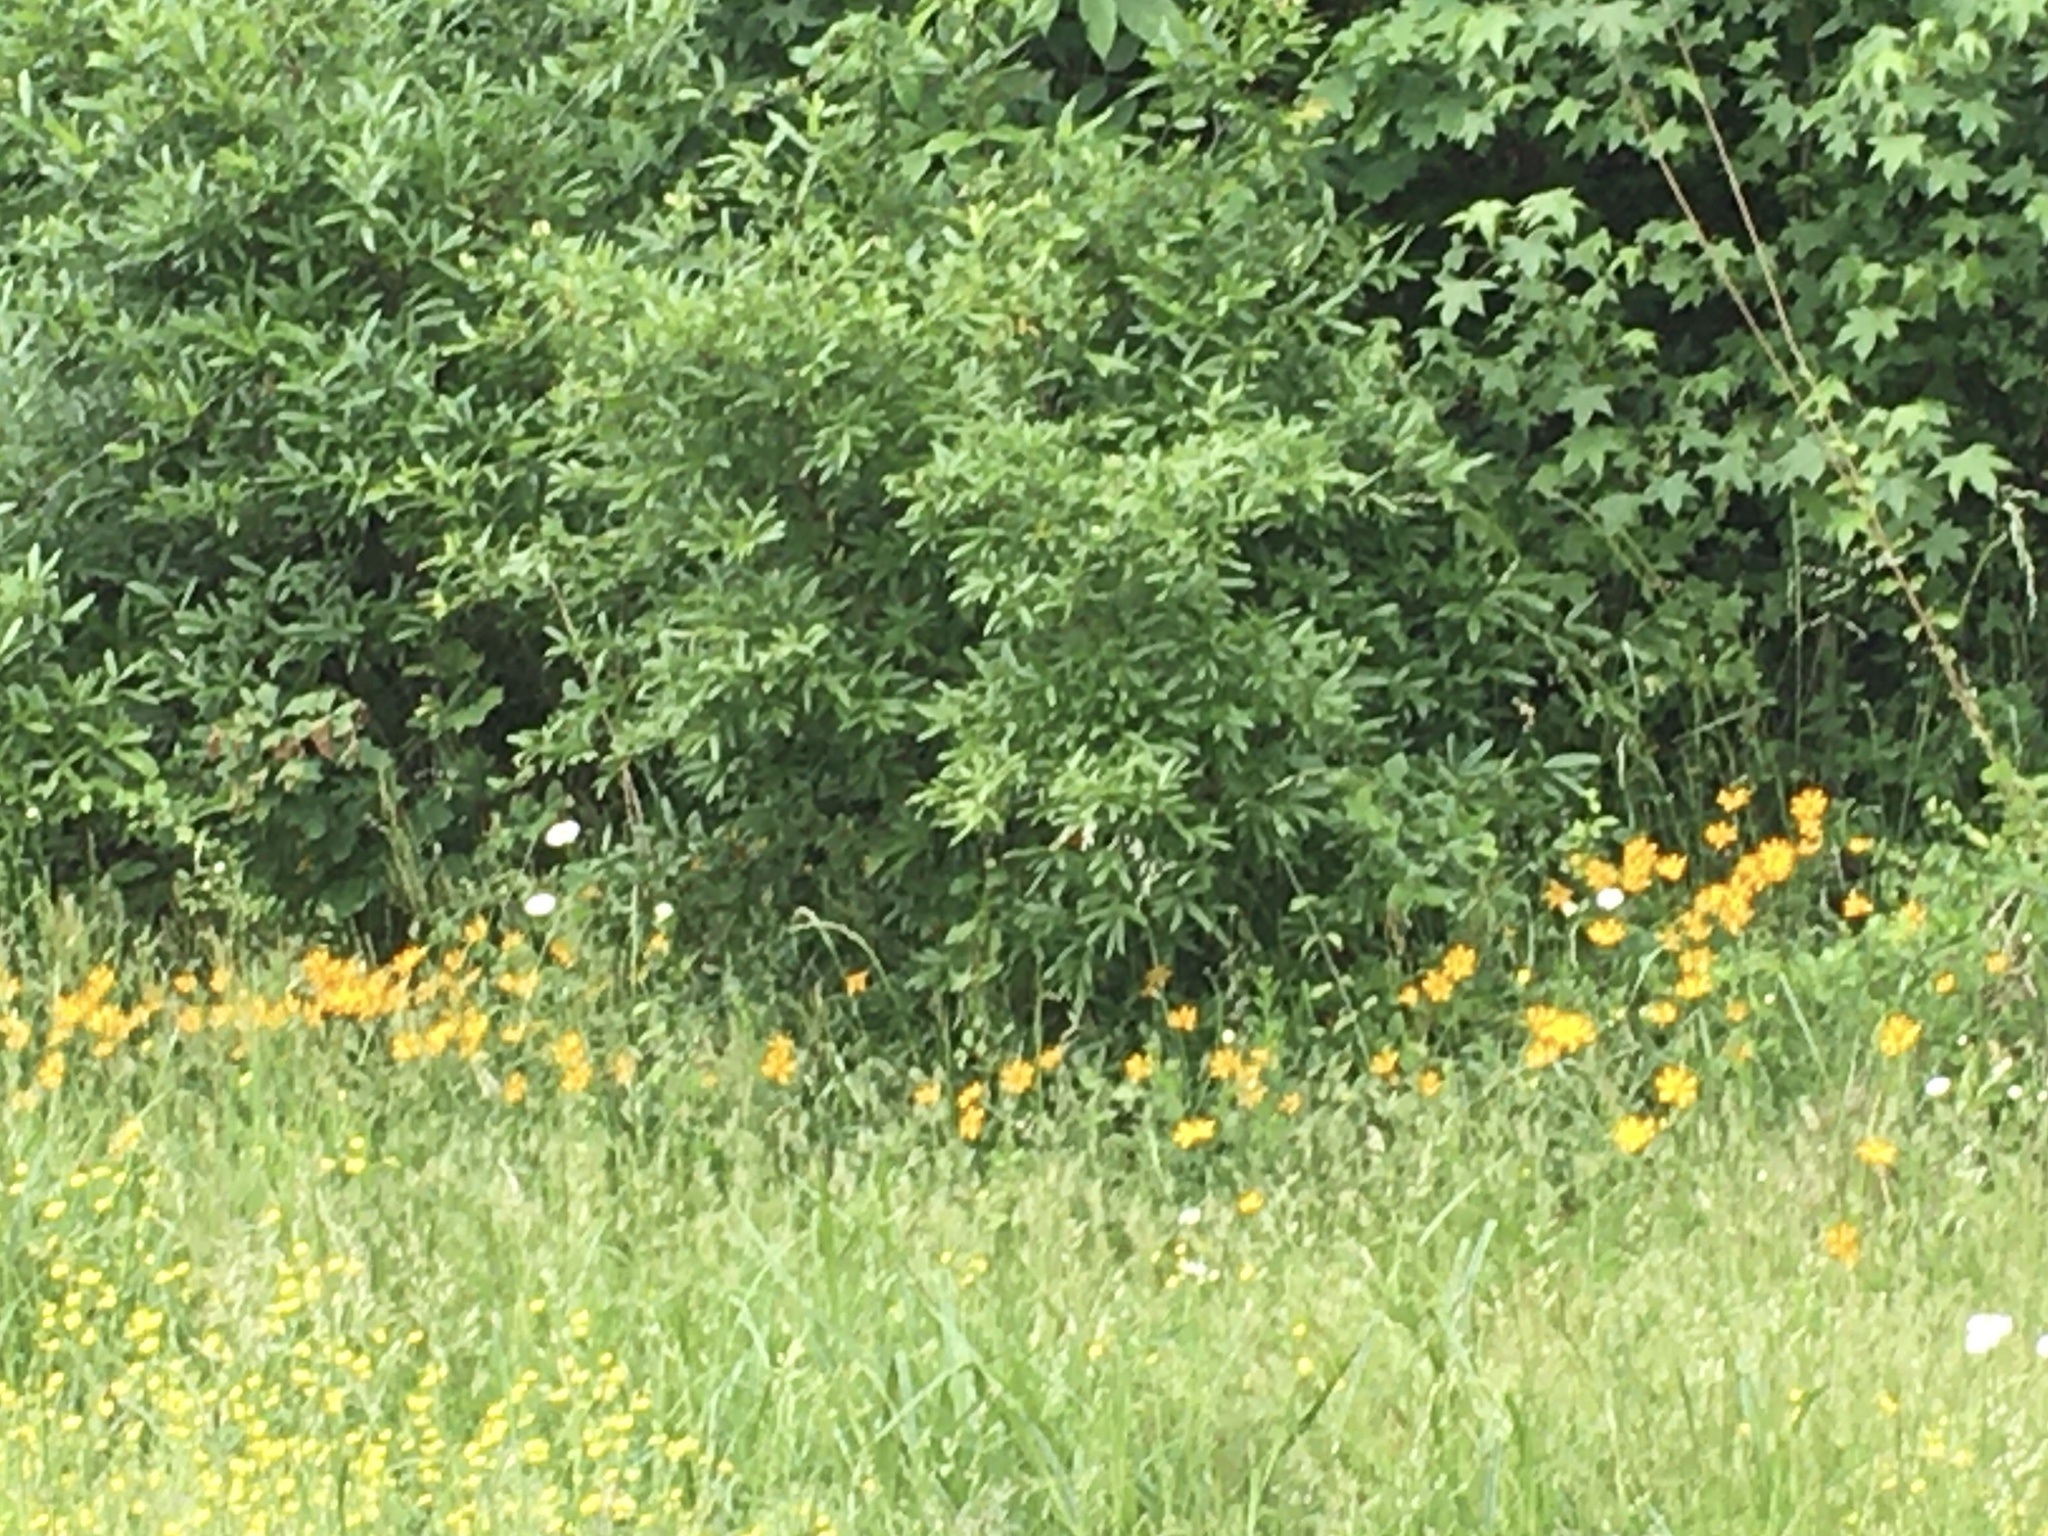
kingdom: Plantae
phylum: Tracheophyta
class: Magnoliopsida
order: Asterales
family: Asteraceae
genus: Coreopsis
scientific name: Coreopsis auriculata
